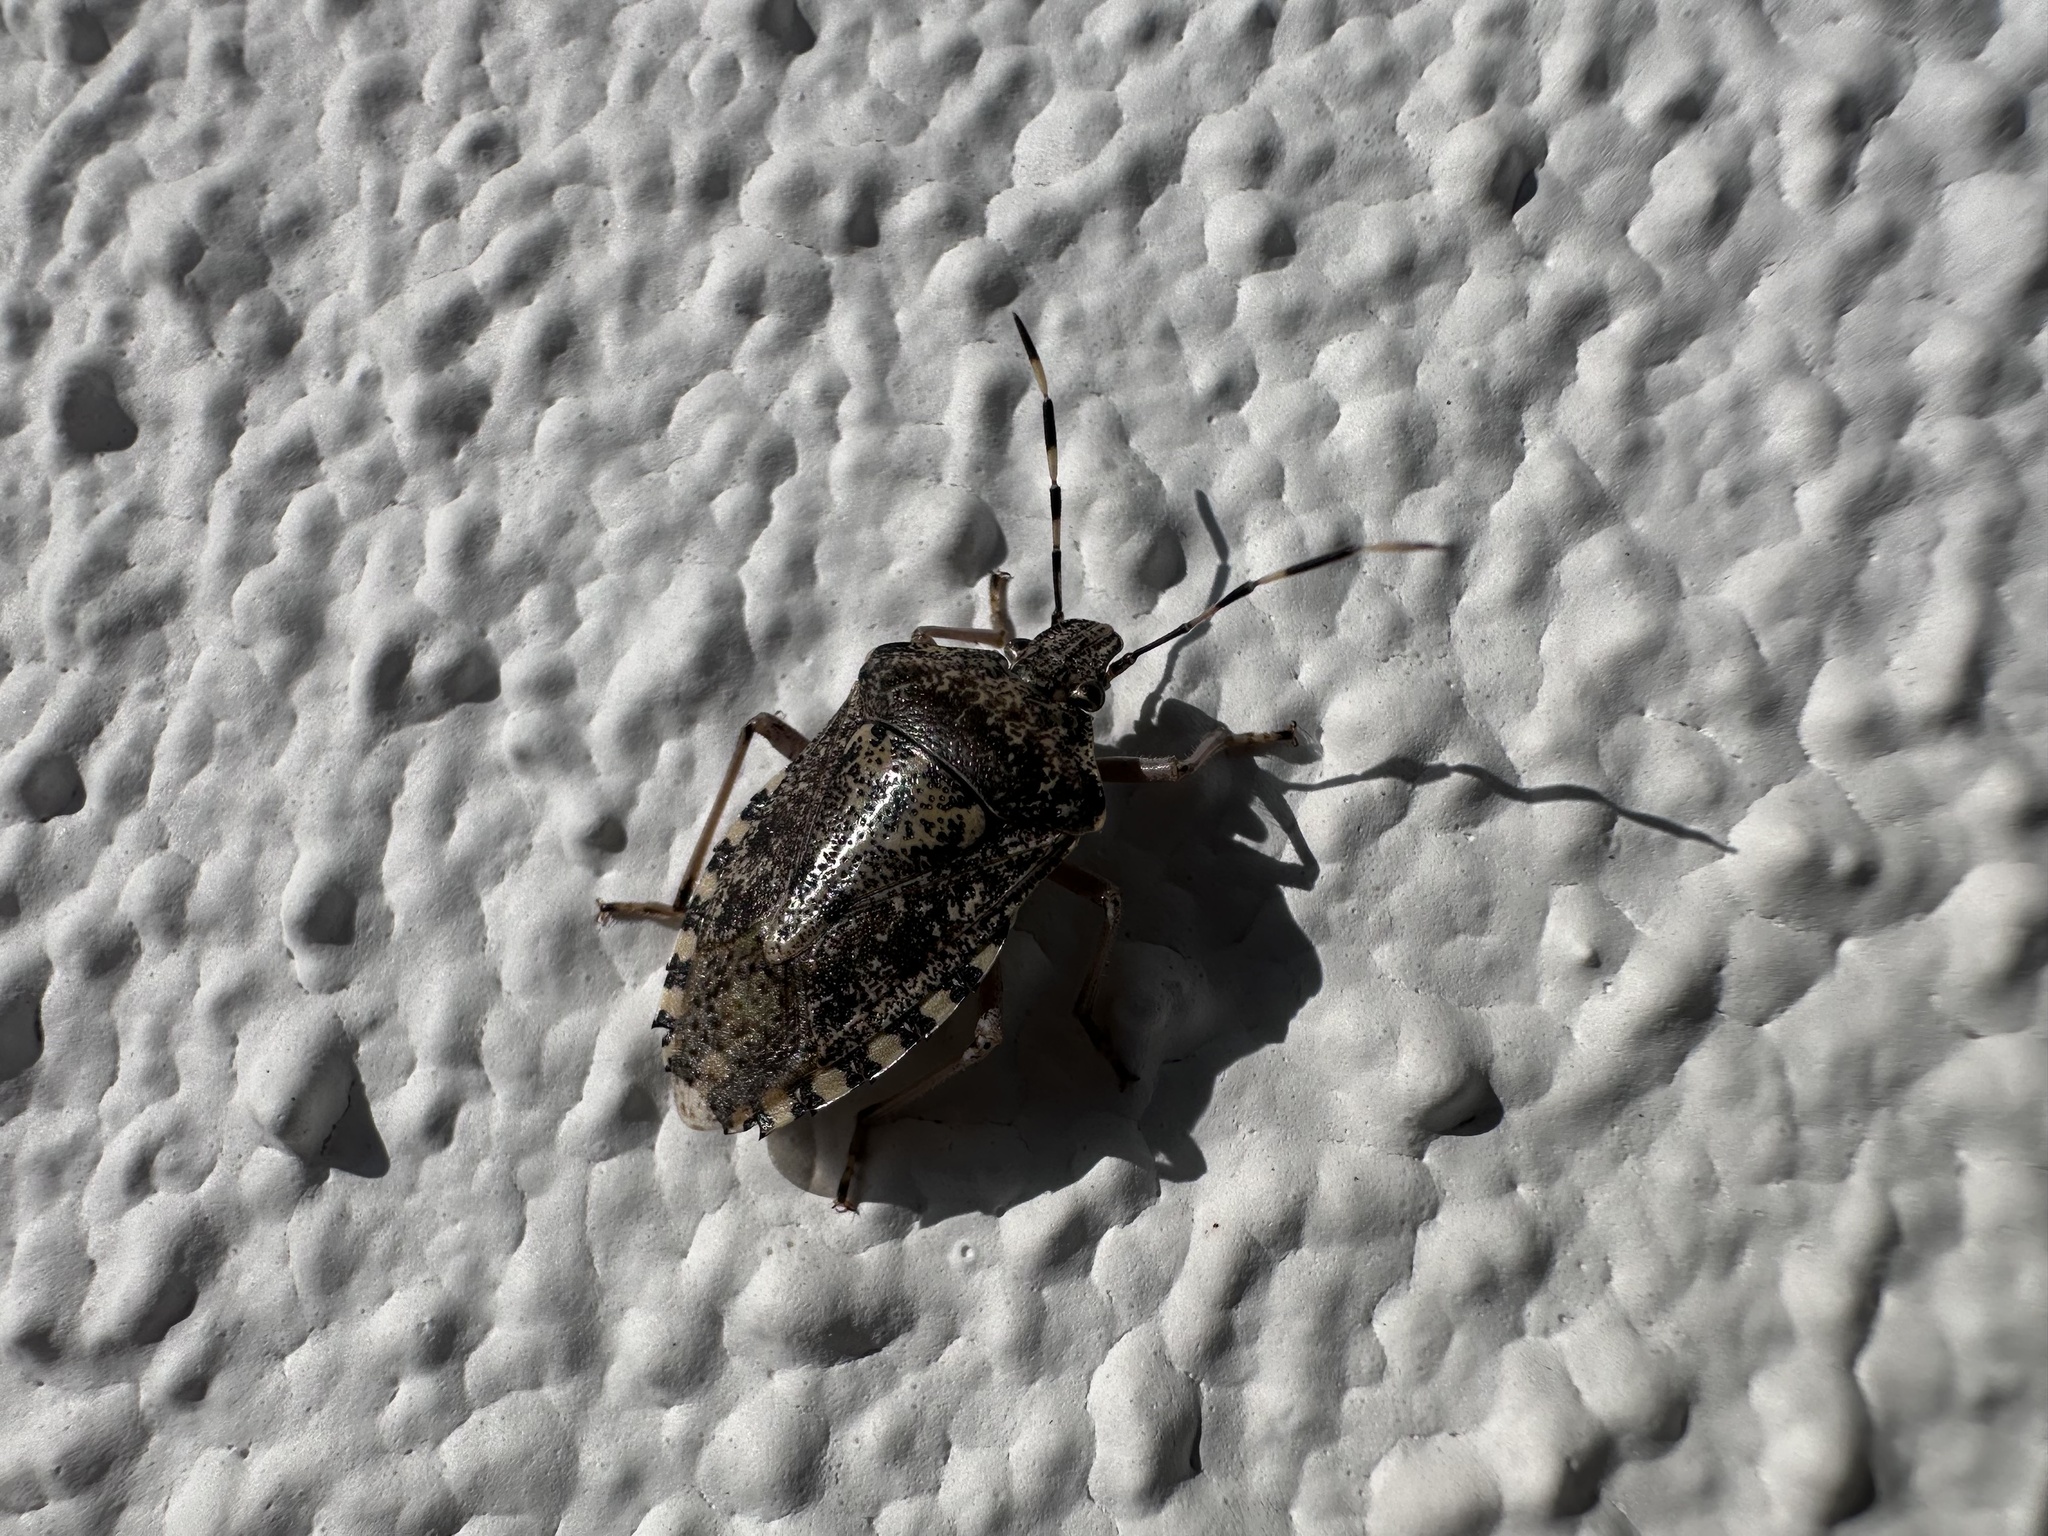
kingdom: Animalia
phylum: Arthropoda
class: Insecta
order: Hemiptera
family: Pentatomidae
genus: Rhaphigaster
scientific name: Rhaphigaster nebulosa
